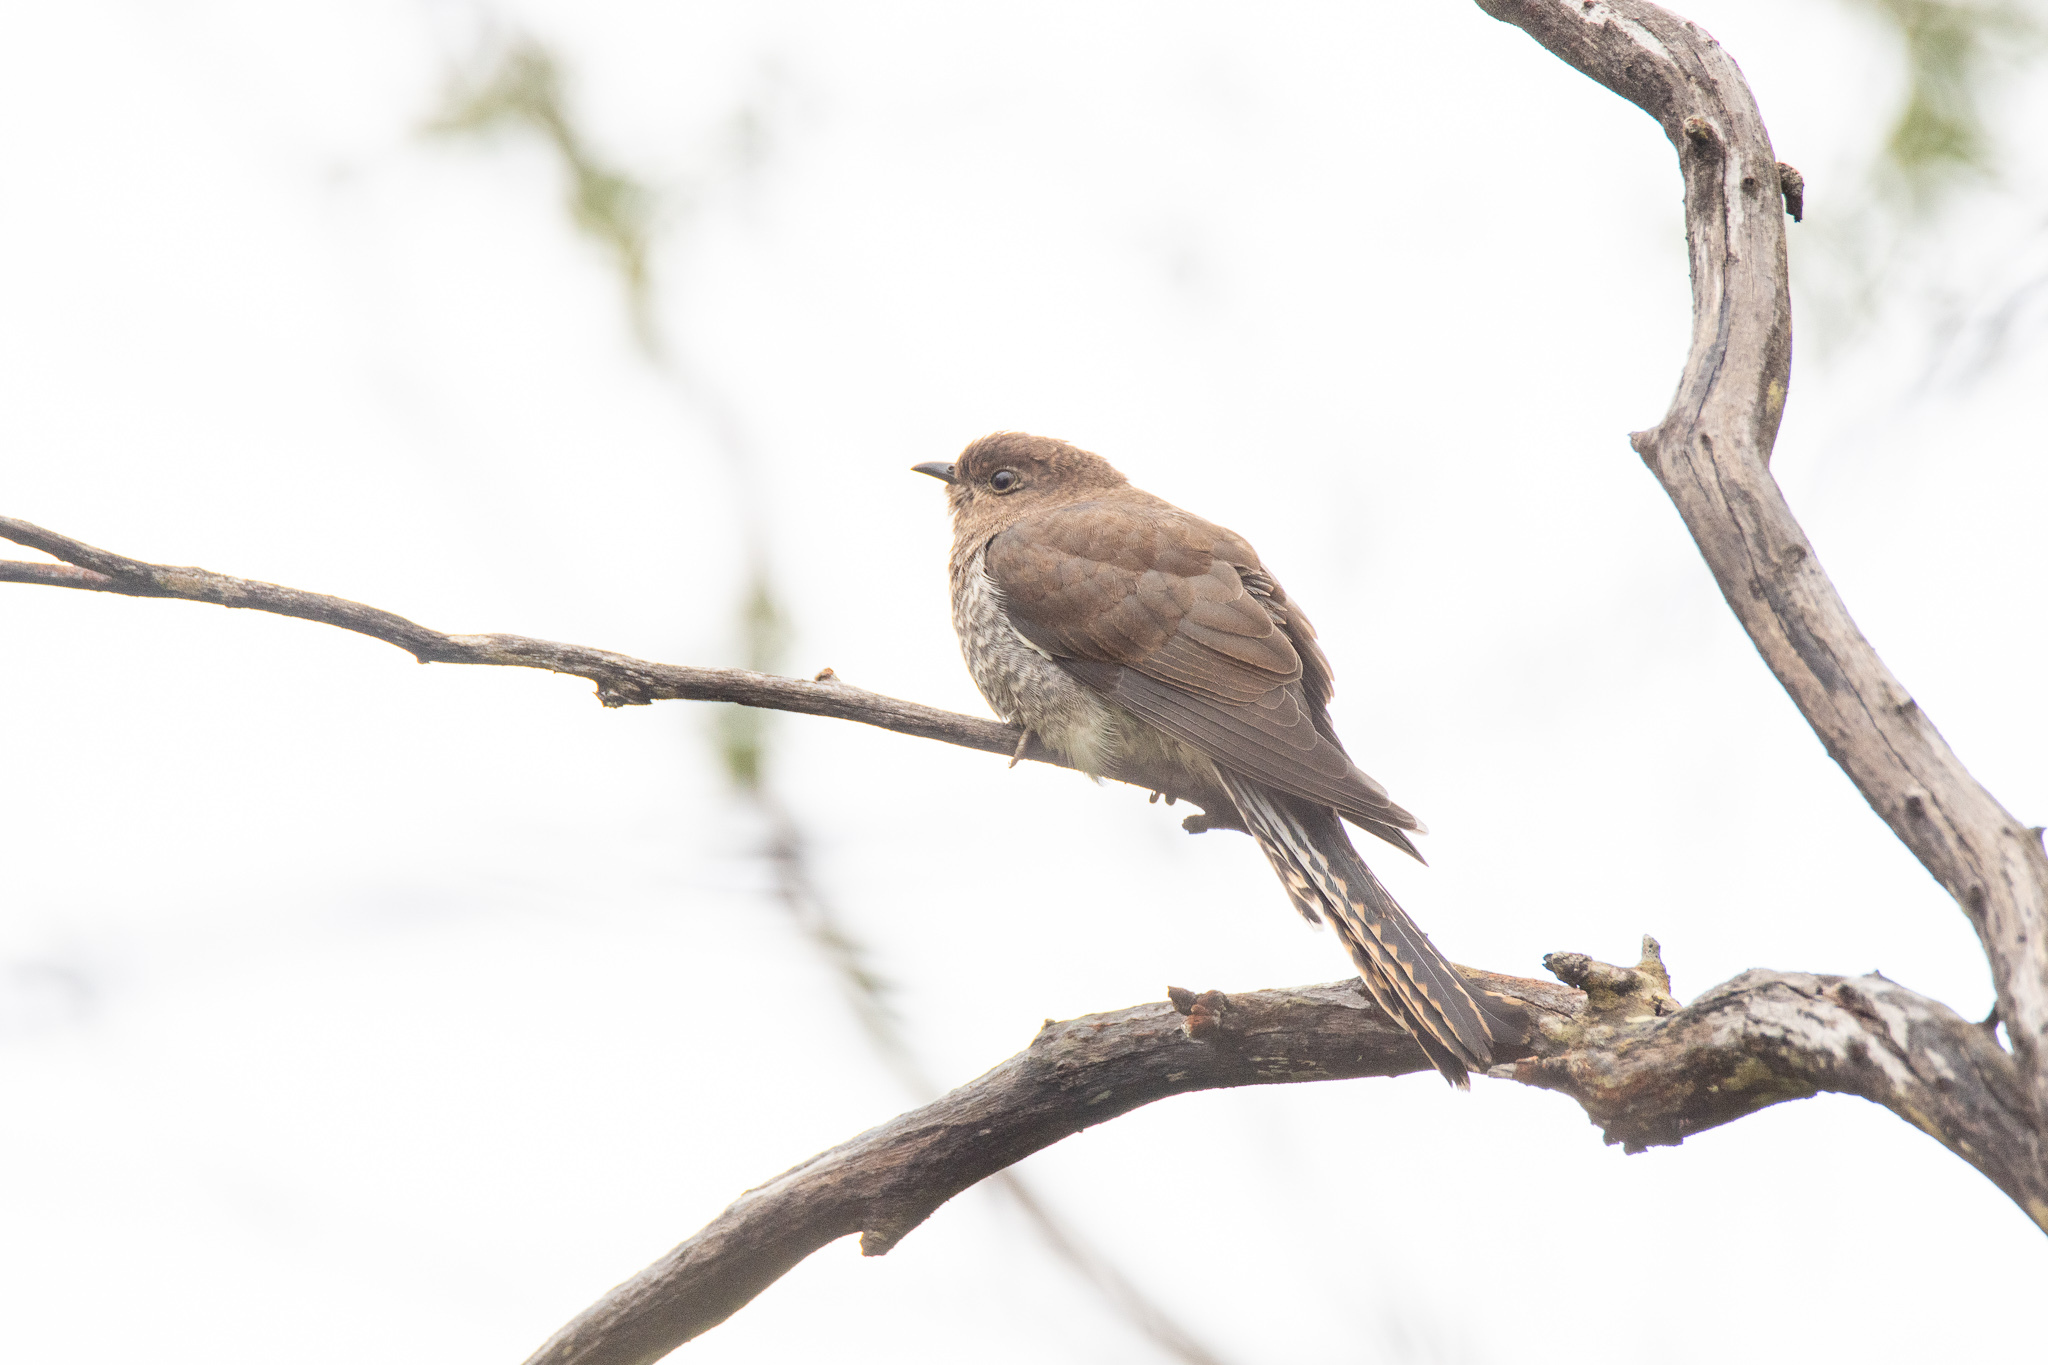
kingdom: Animalia
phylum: Chordata
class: Aves
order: Cuculiformes
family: Cuculidae
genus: Cacomantis
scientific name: Cacomantis flabelliformis
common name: Fan-tailed cuckoo
